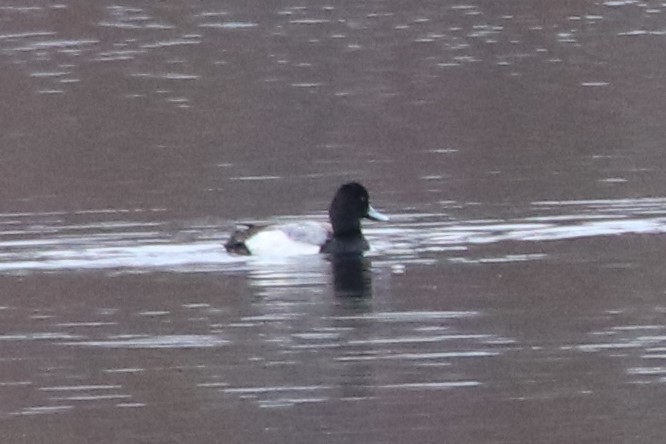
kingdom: Animalia
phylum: Chordata
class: Aves
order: Anseriformes
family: Anatidae
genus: Aythya
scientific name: Aythya affinis
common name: Lesser scaup
